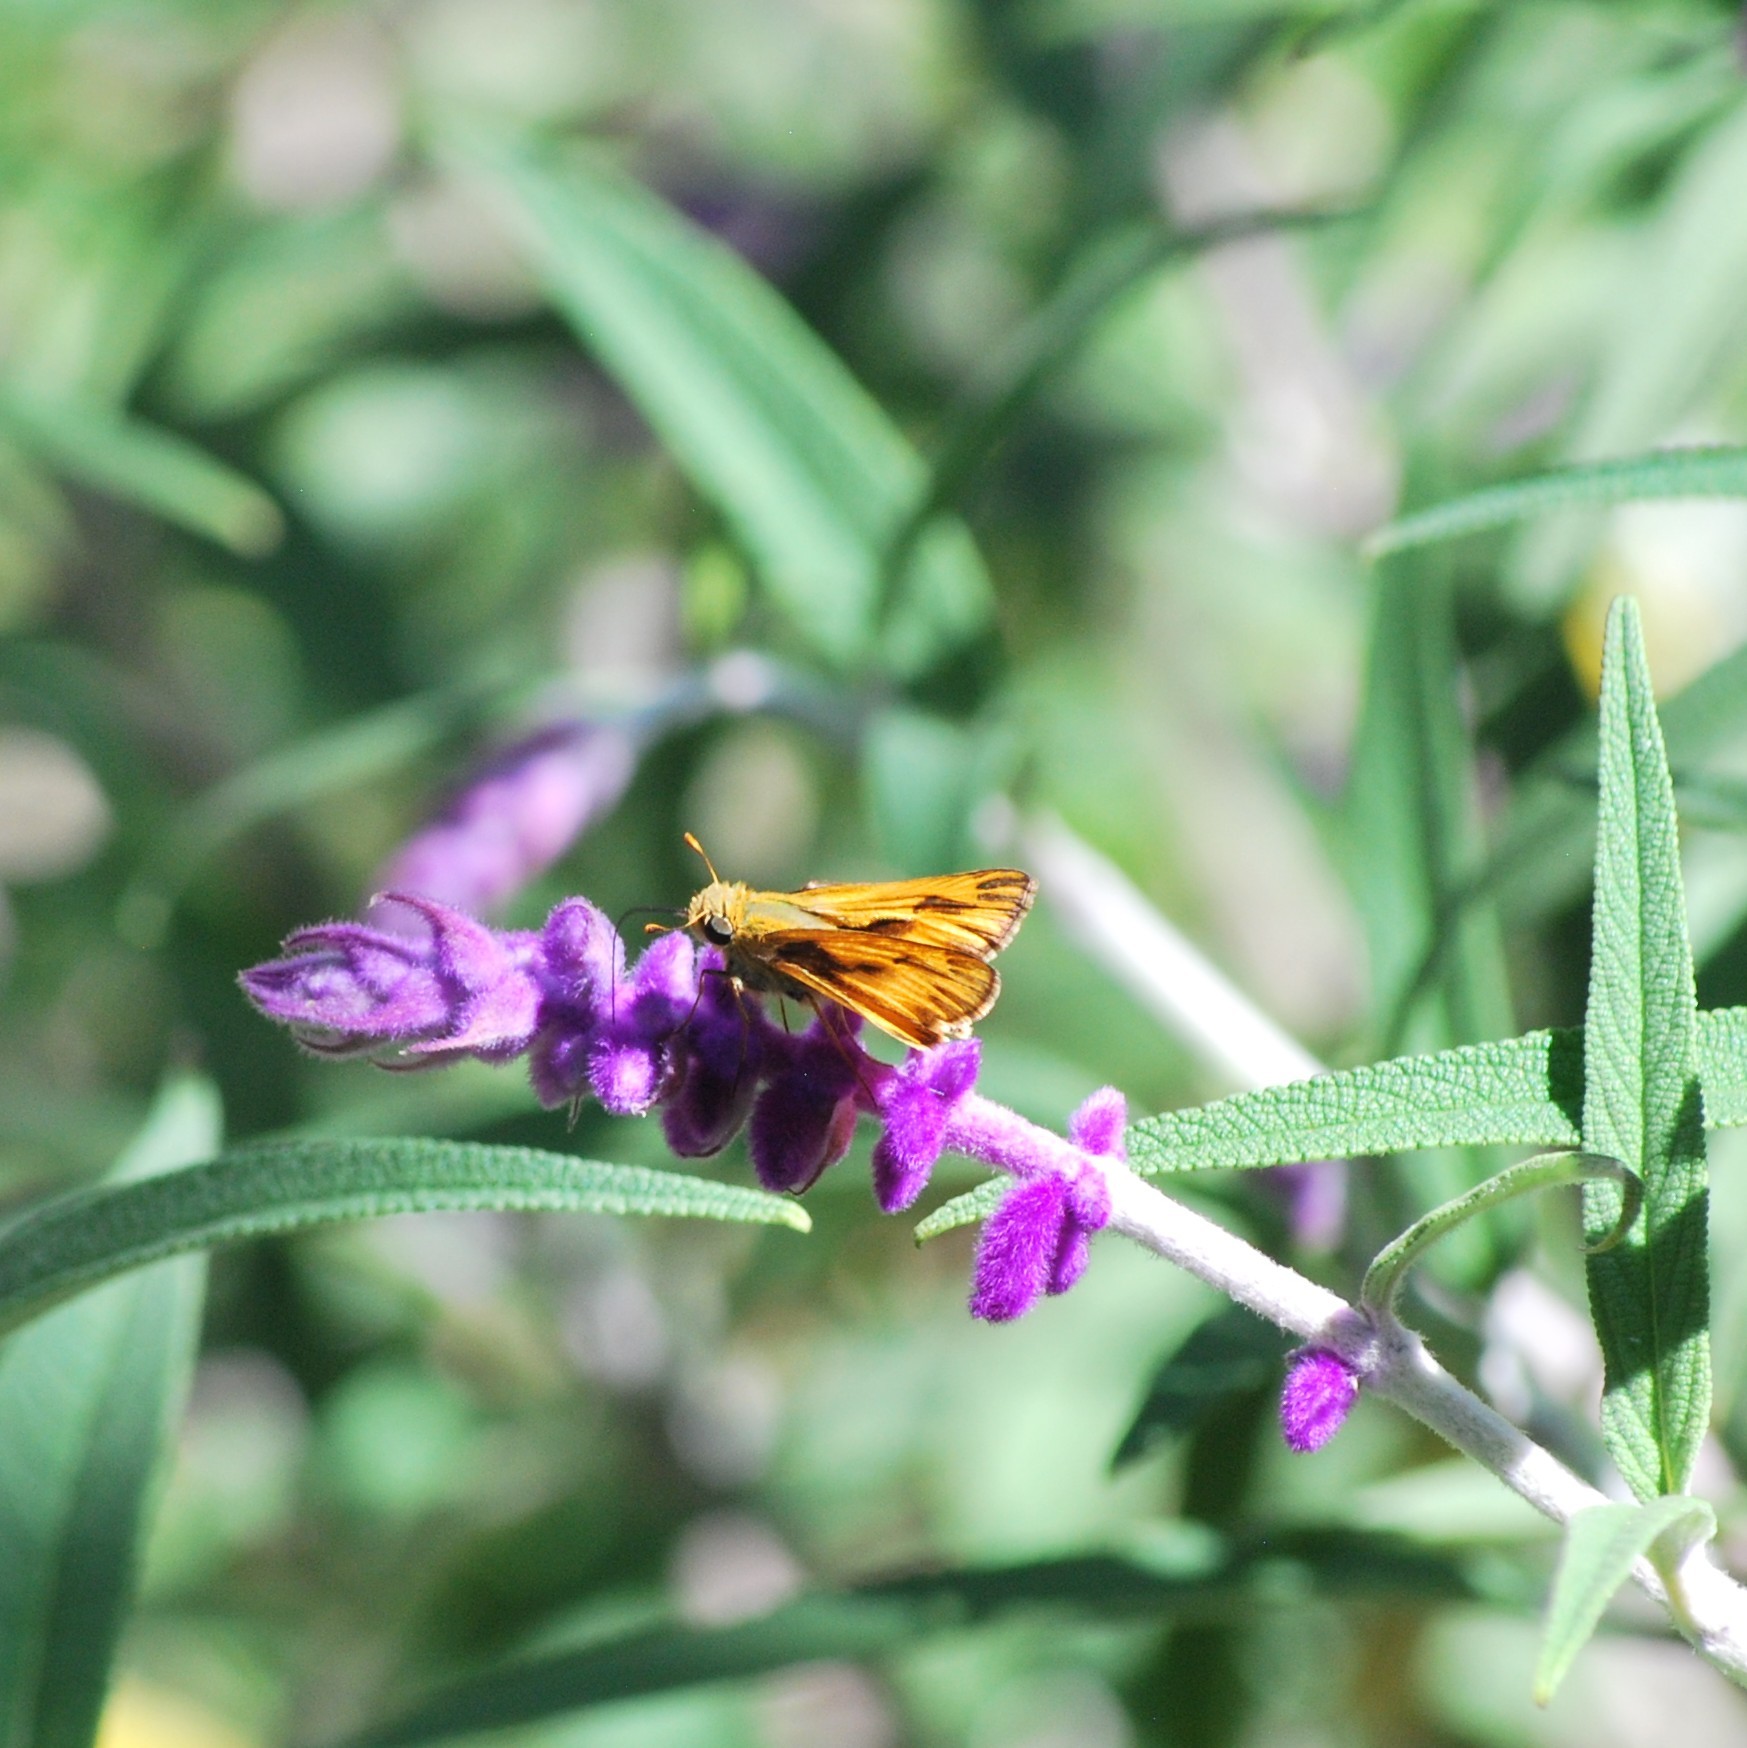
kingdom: Animalia
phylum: Arthropoda
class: Insecta
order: Lepidoptera
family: Hesperiidae
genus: Hylephila
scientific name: Hylephila phyleus
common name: Fiery skipper
